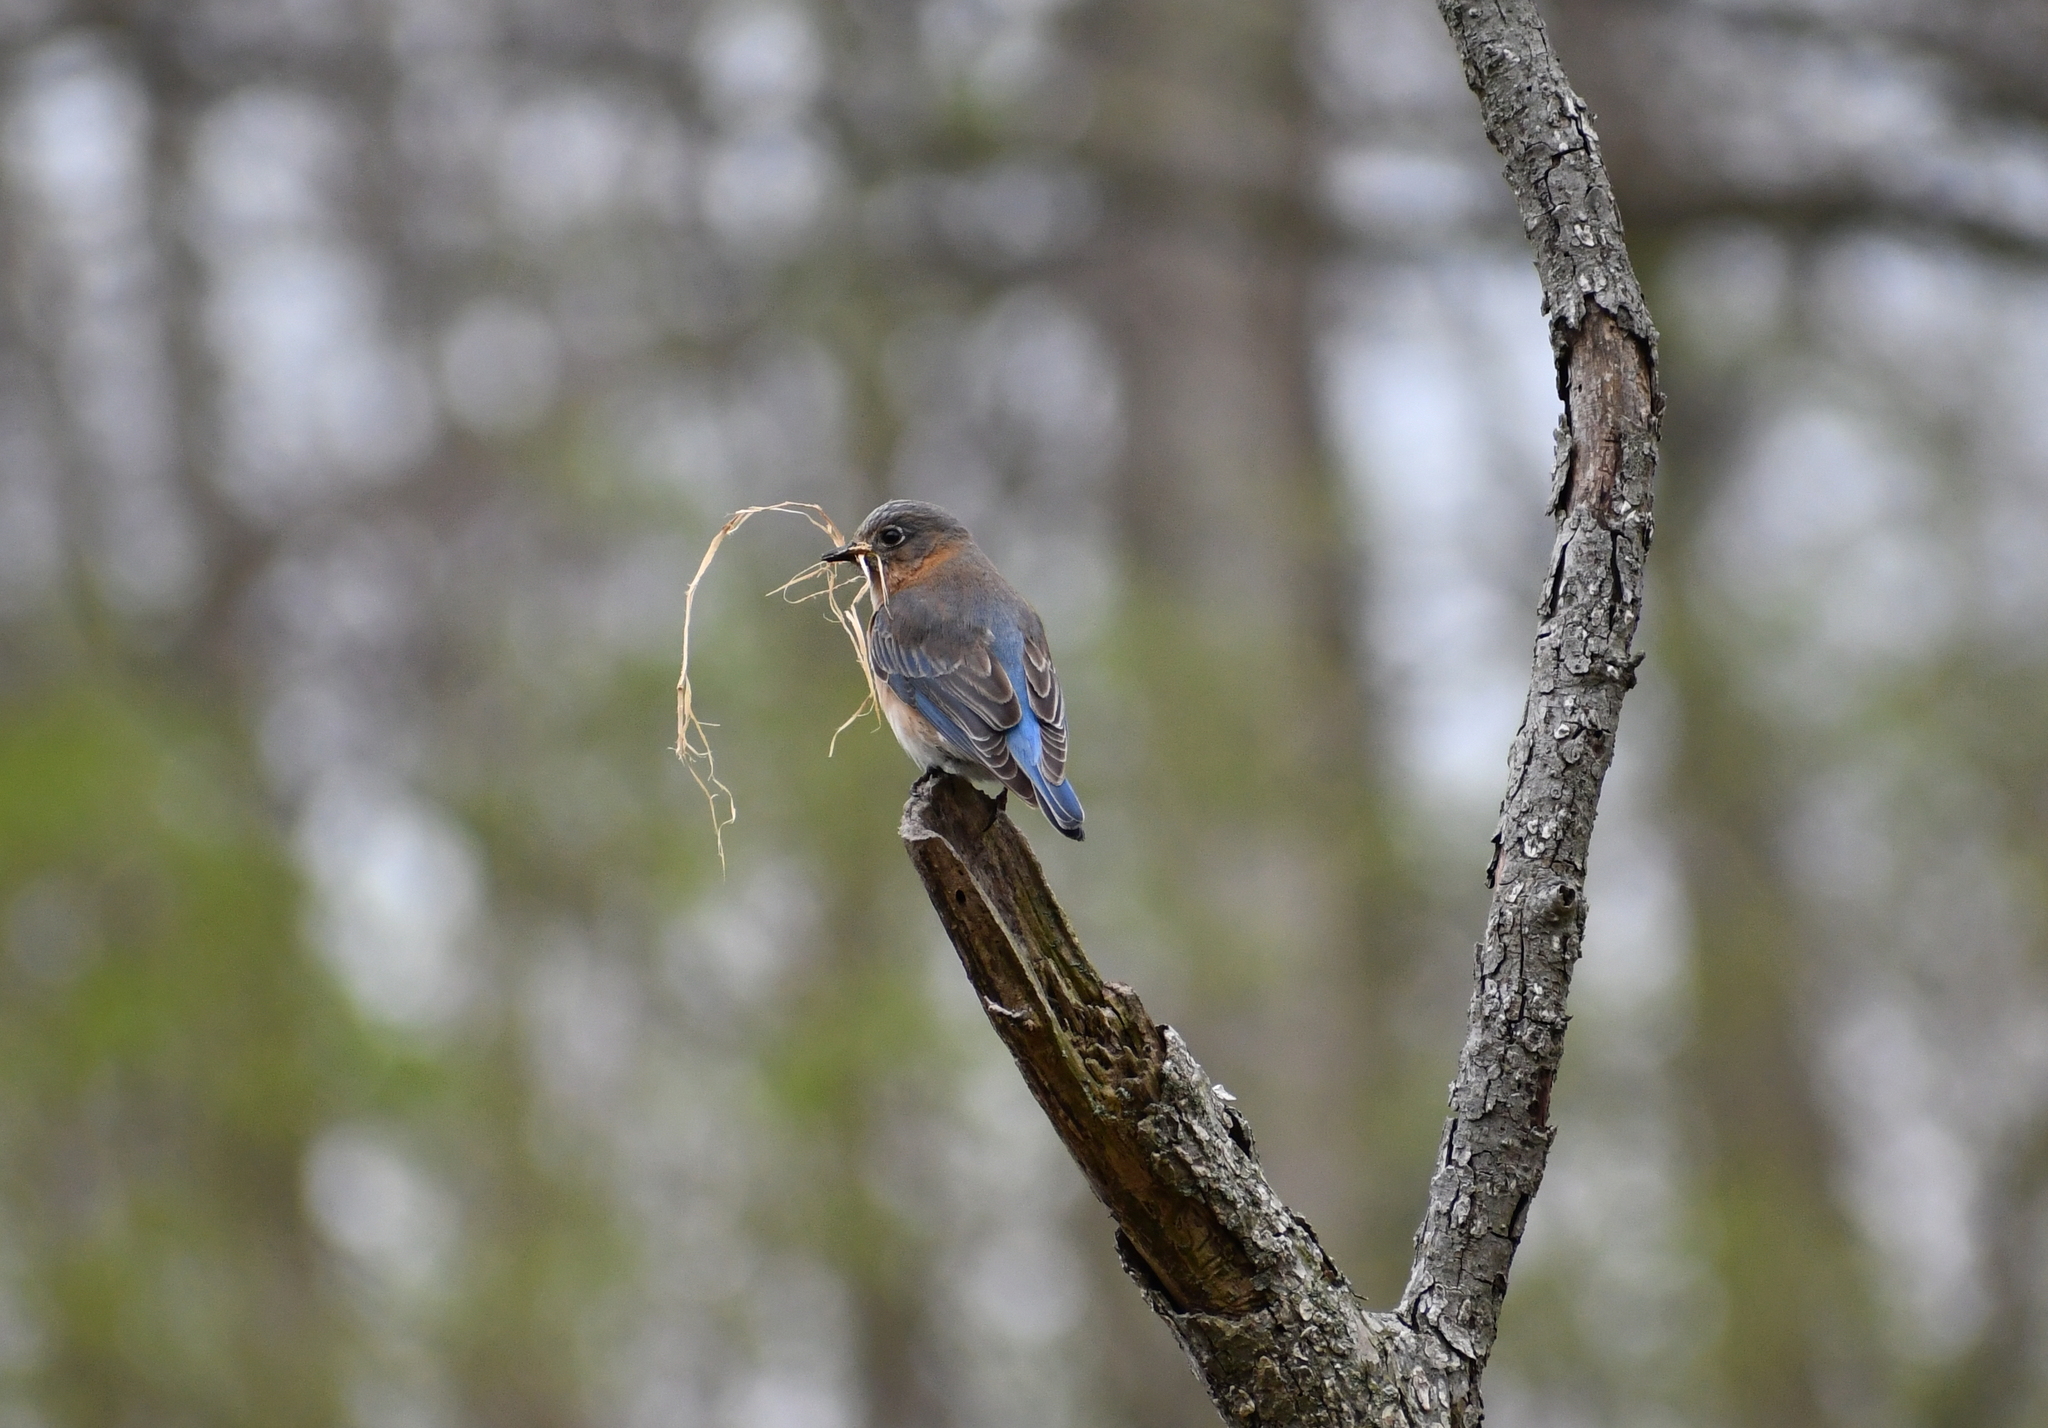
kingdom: Animalia
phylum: Chordata
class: Aves
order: Passeriformes
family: Turdidae
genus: Sialia
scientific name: Sialia sialis
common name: Eastern bluebird
